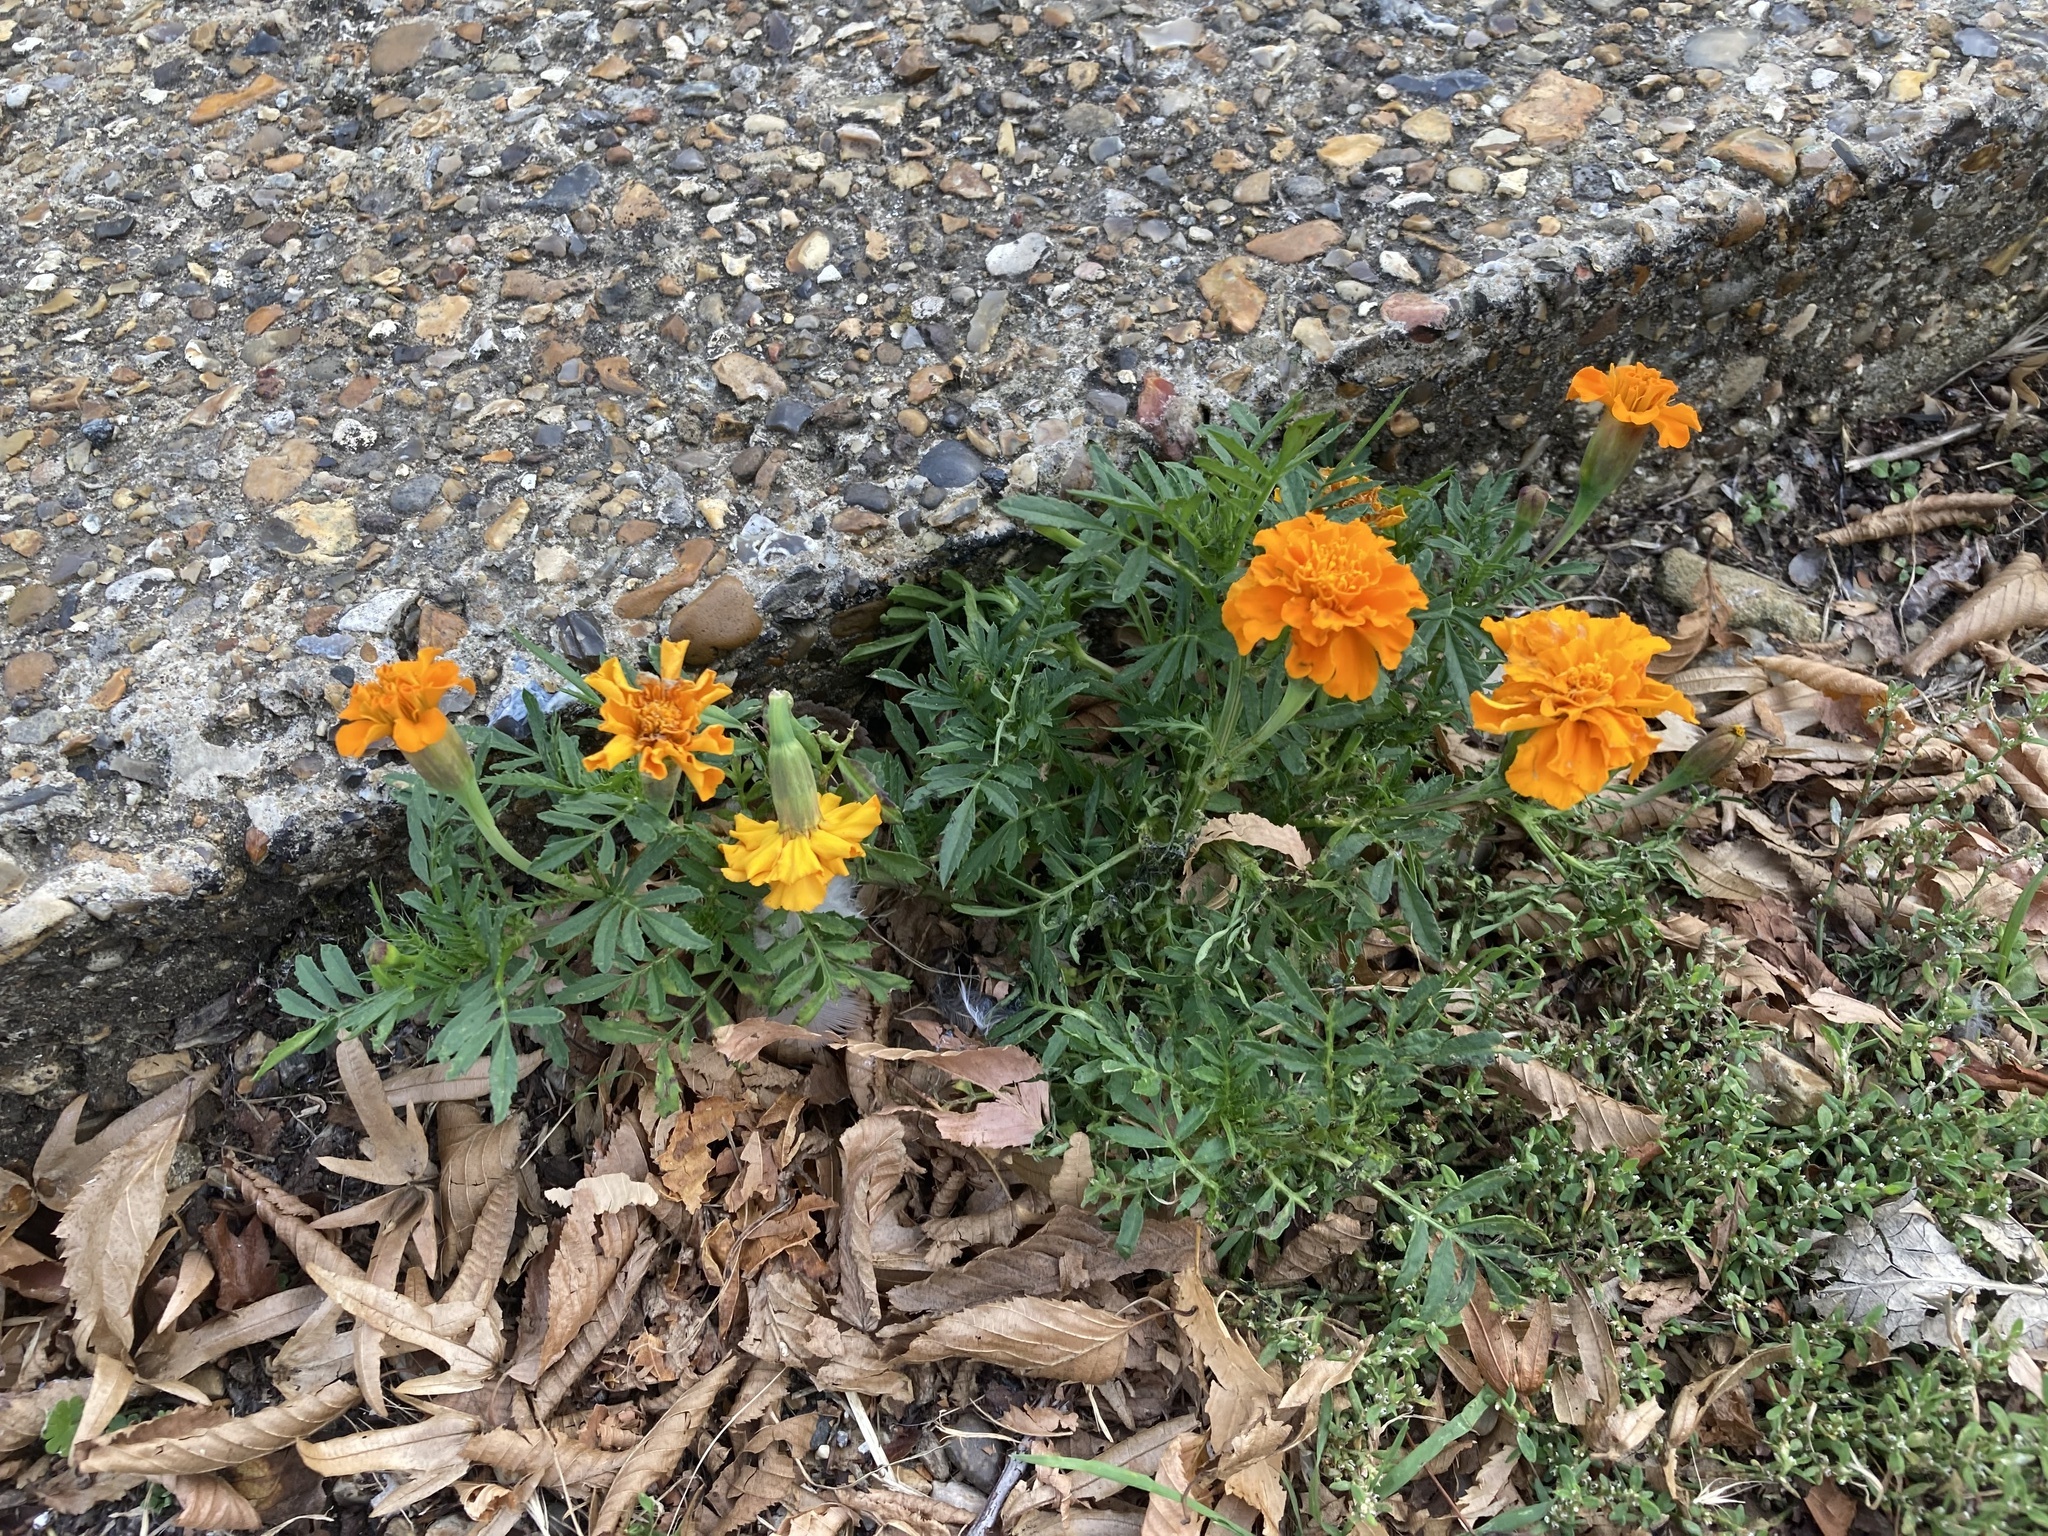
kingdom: Plantae
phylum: Tracheophyta
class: Magnoliopsida
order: Asterales
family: Asteraceae
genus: Tagetes
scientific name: Tagetes erecta
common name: African marigold
